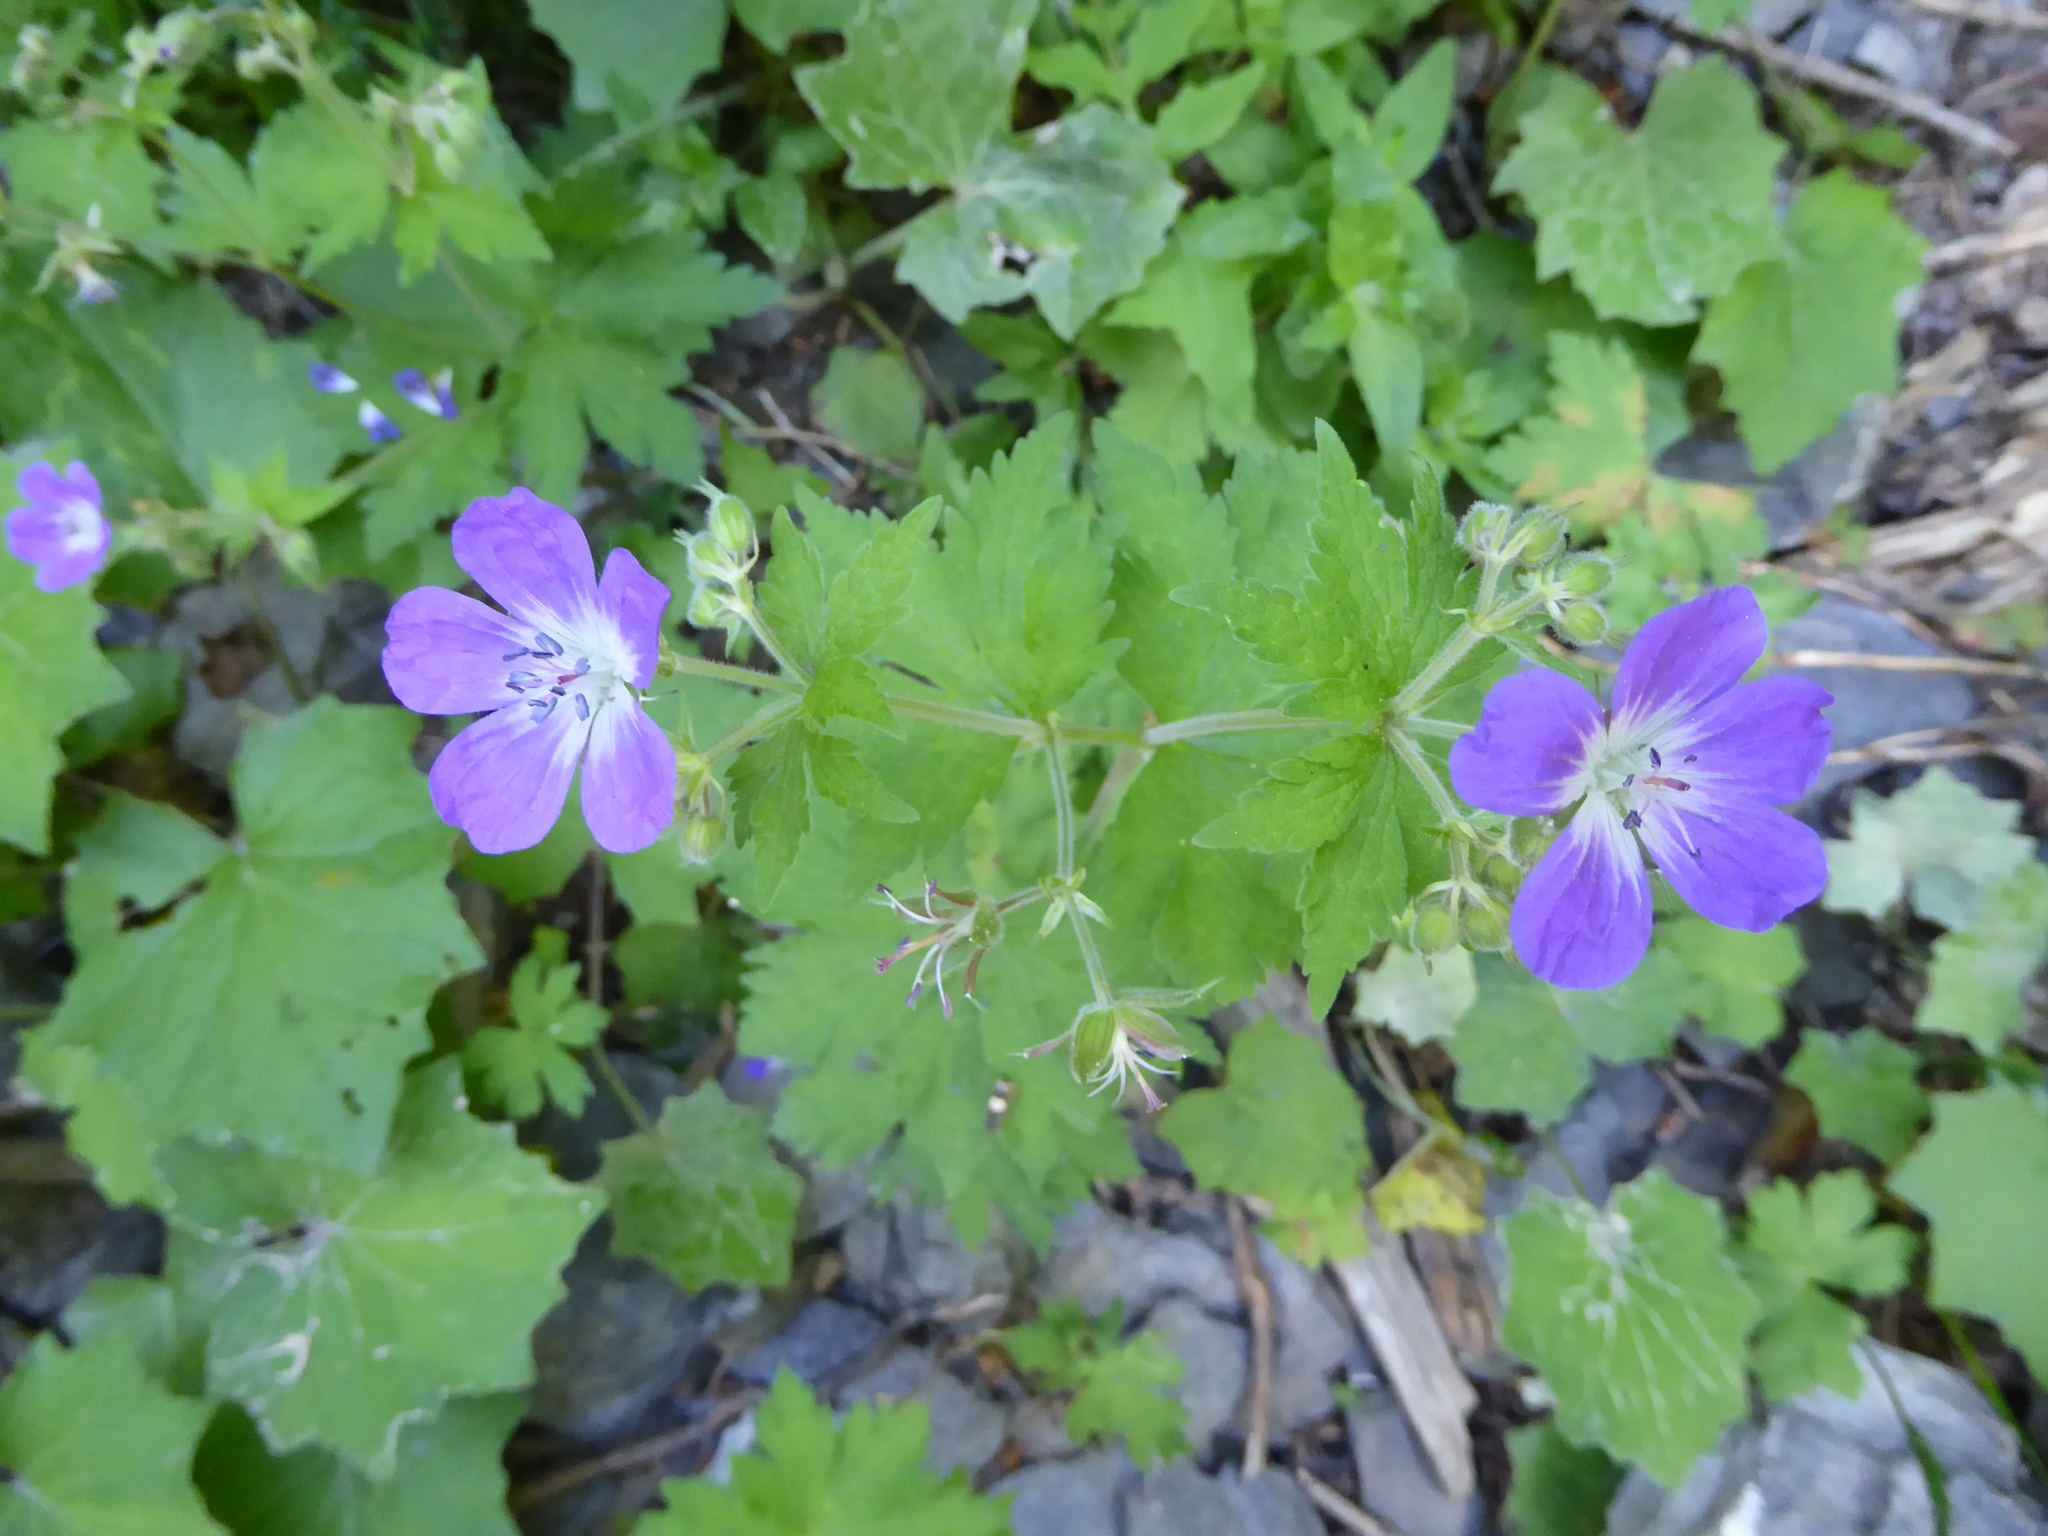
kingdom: Plantae
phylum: Tracheophyta
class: Magnoliopsida
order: Geraniales
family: Geraniaceae
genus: Geranium
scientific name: Geranium sylvaticum
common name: Wood crane's-bill
